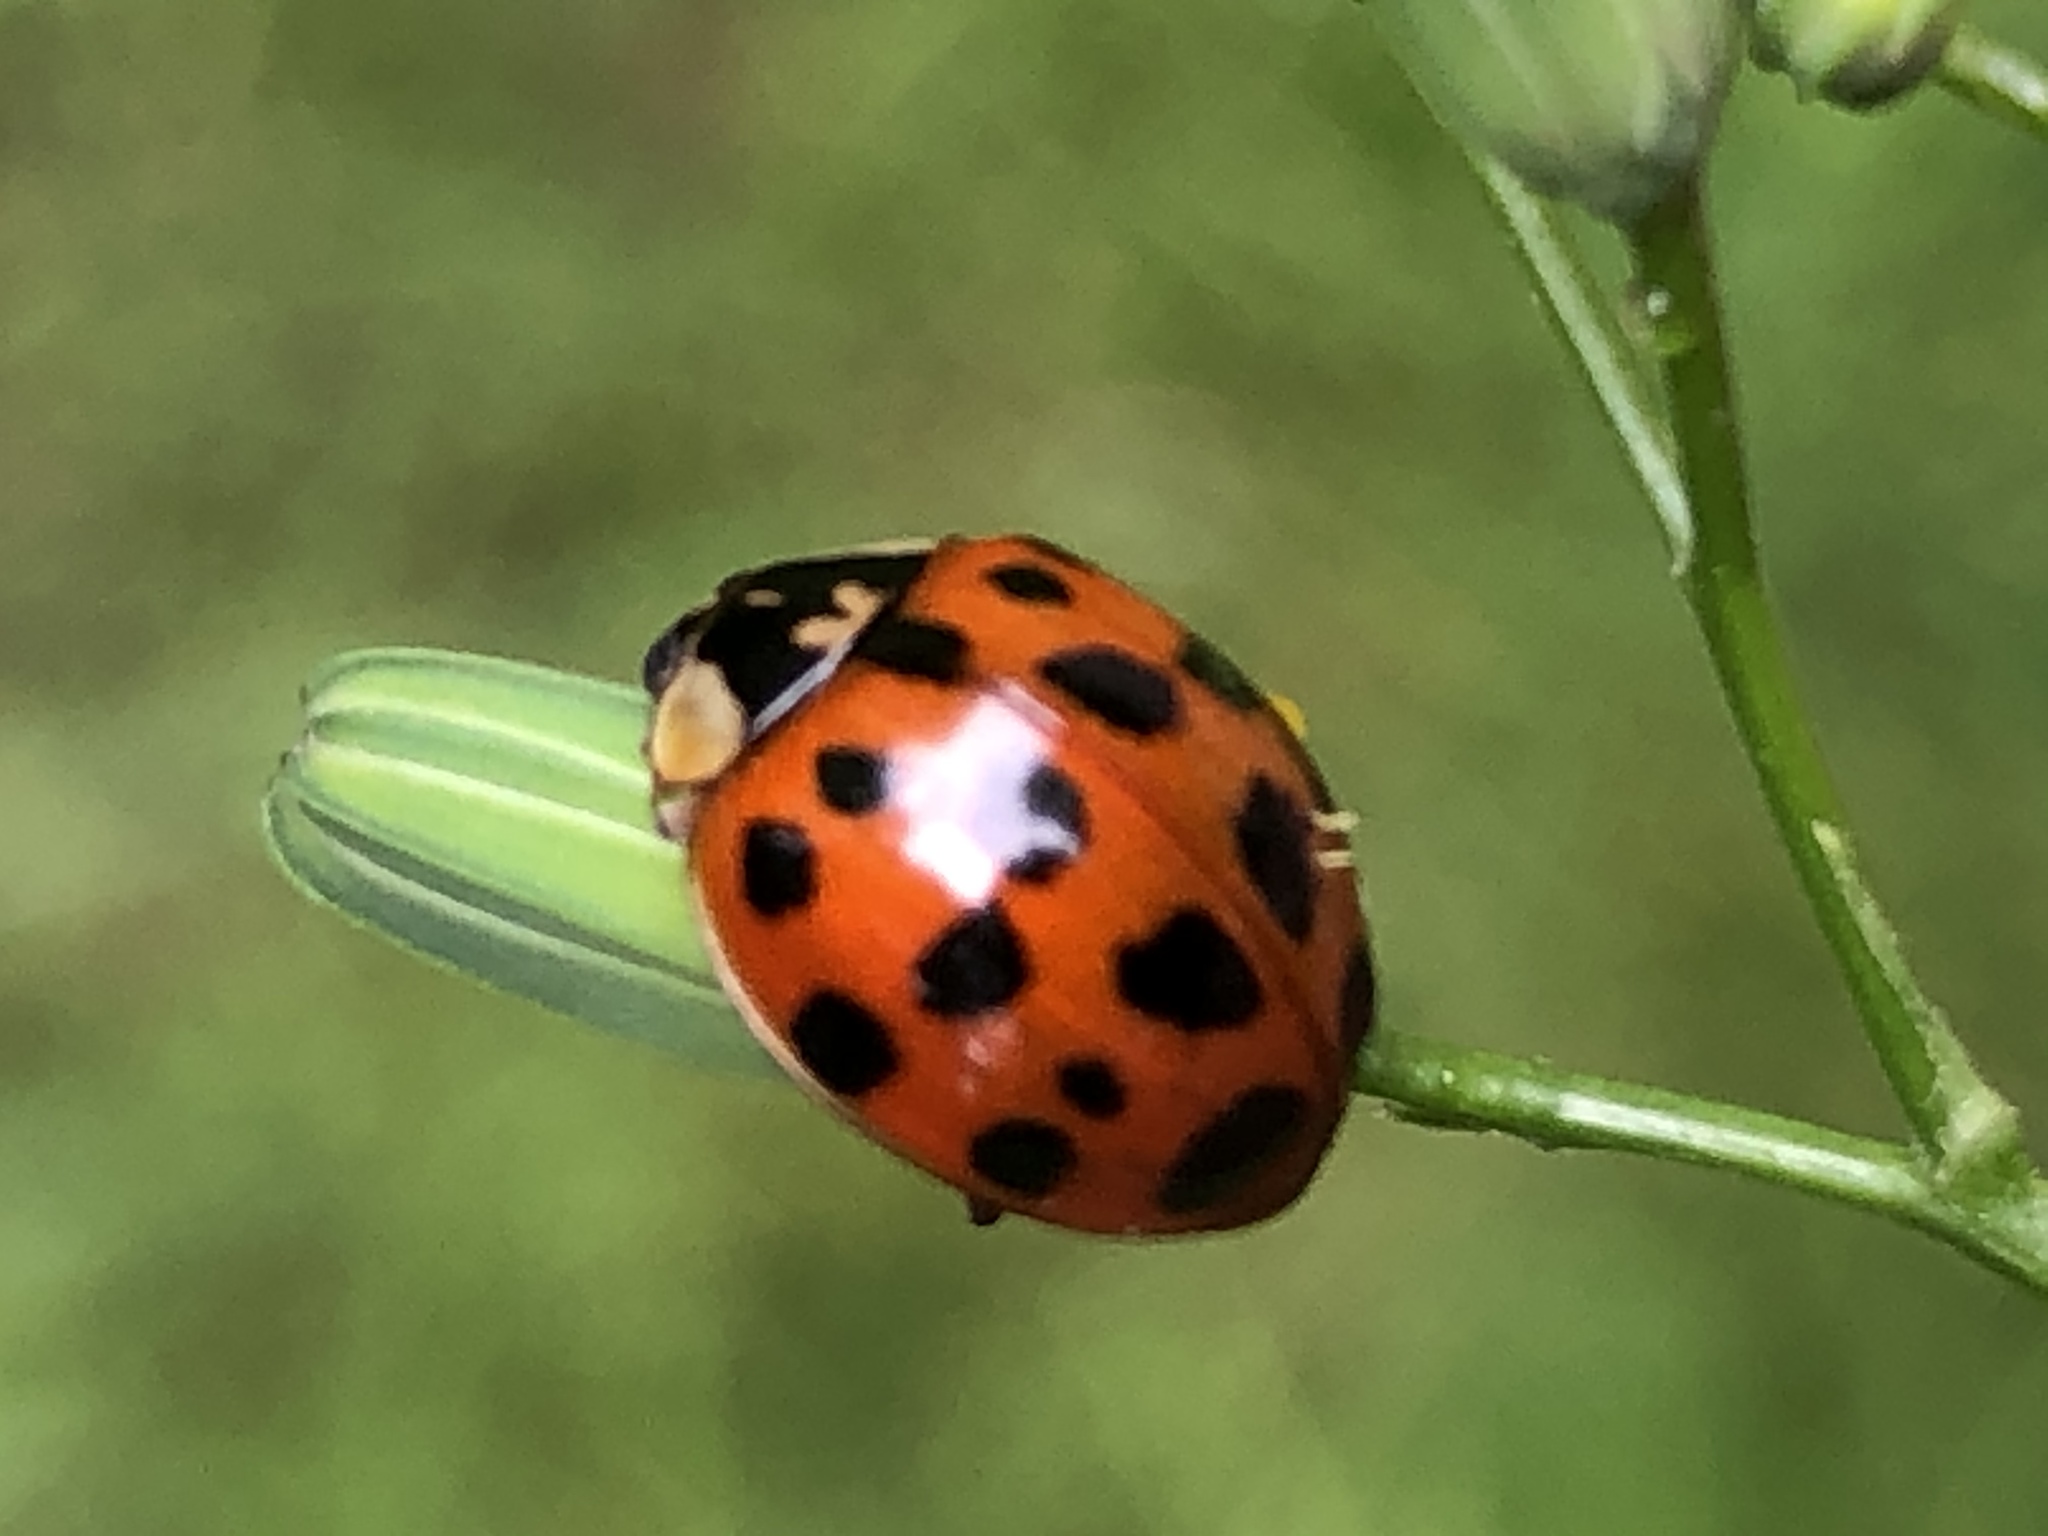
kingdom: Animalia
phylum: Arthropoda
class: Insecta
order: Coleoptera
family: Coccinellidae
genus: Harmonia
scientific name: Harmonia axyridis
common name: Harlequin ladybird
